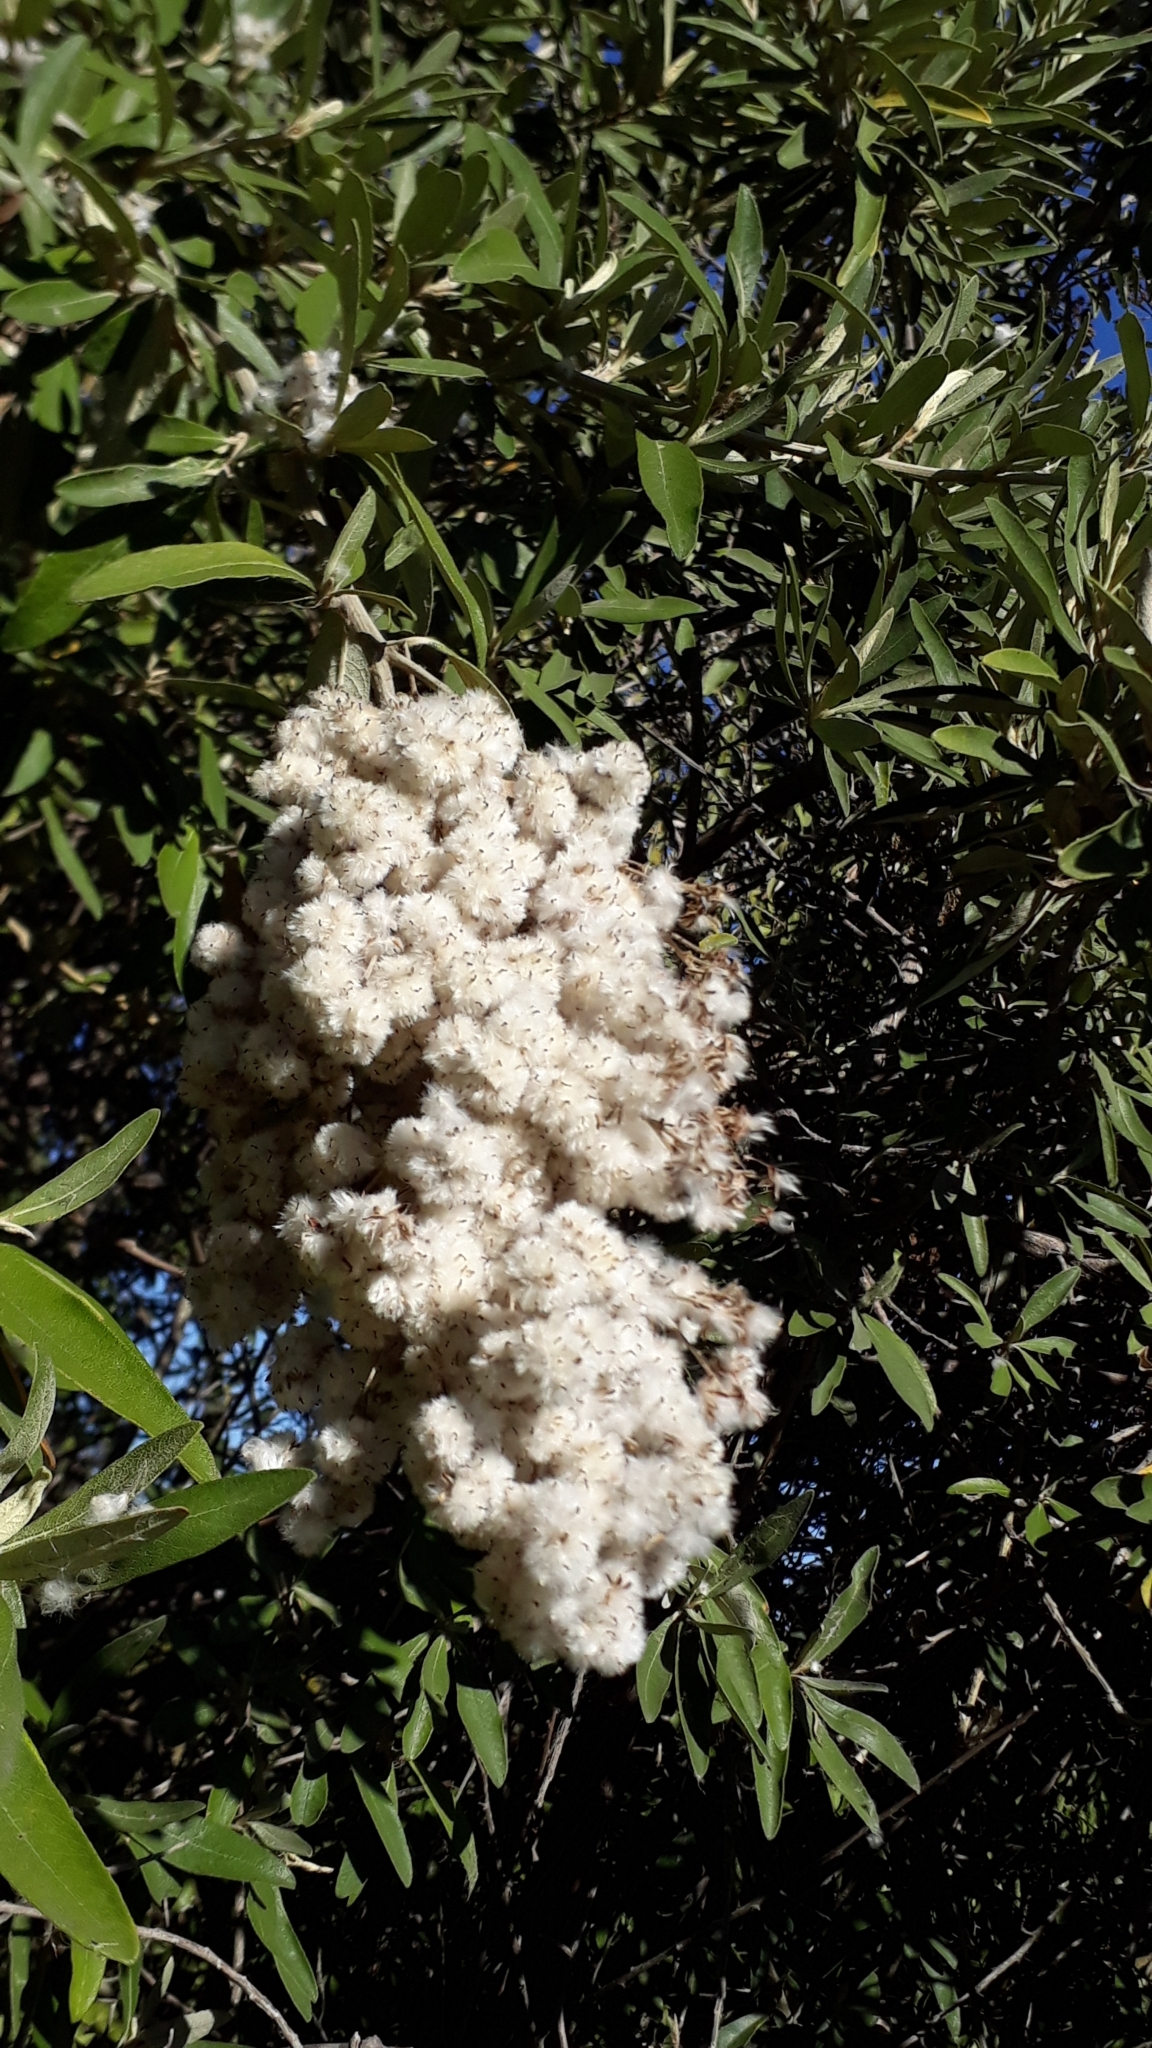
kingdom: Plantae
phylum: Tracheophyta
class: Magnoliopsida
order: Asterales
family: Asteraceae
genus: Tarchonanthus
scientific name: Tarchonanthus littoralis
